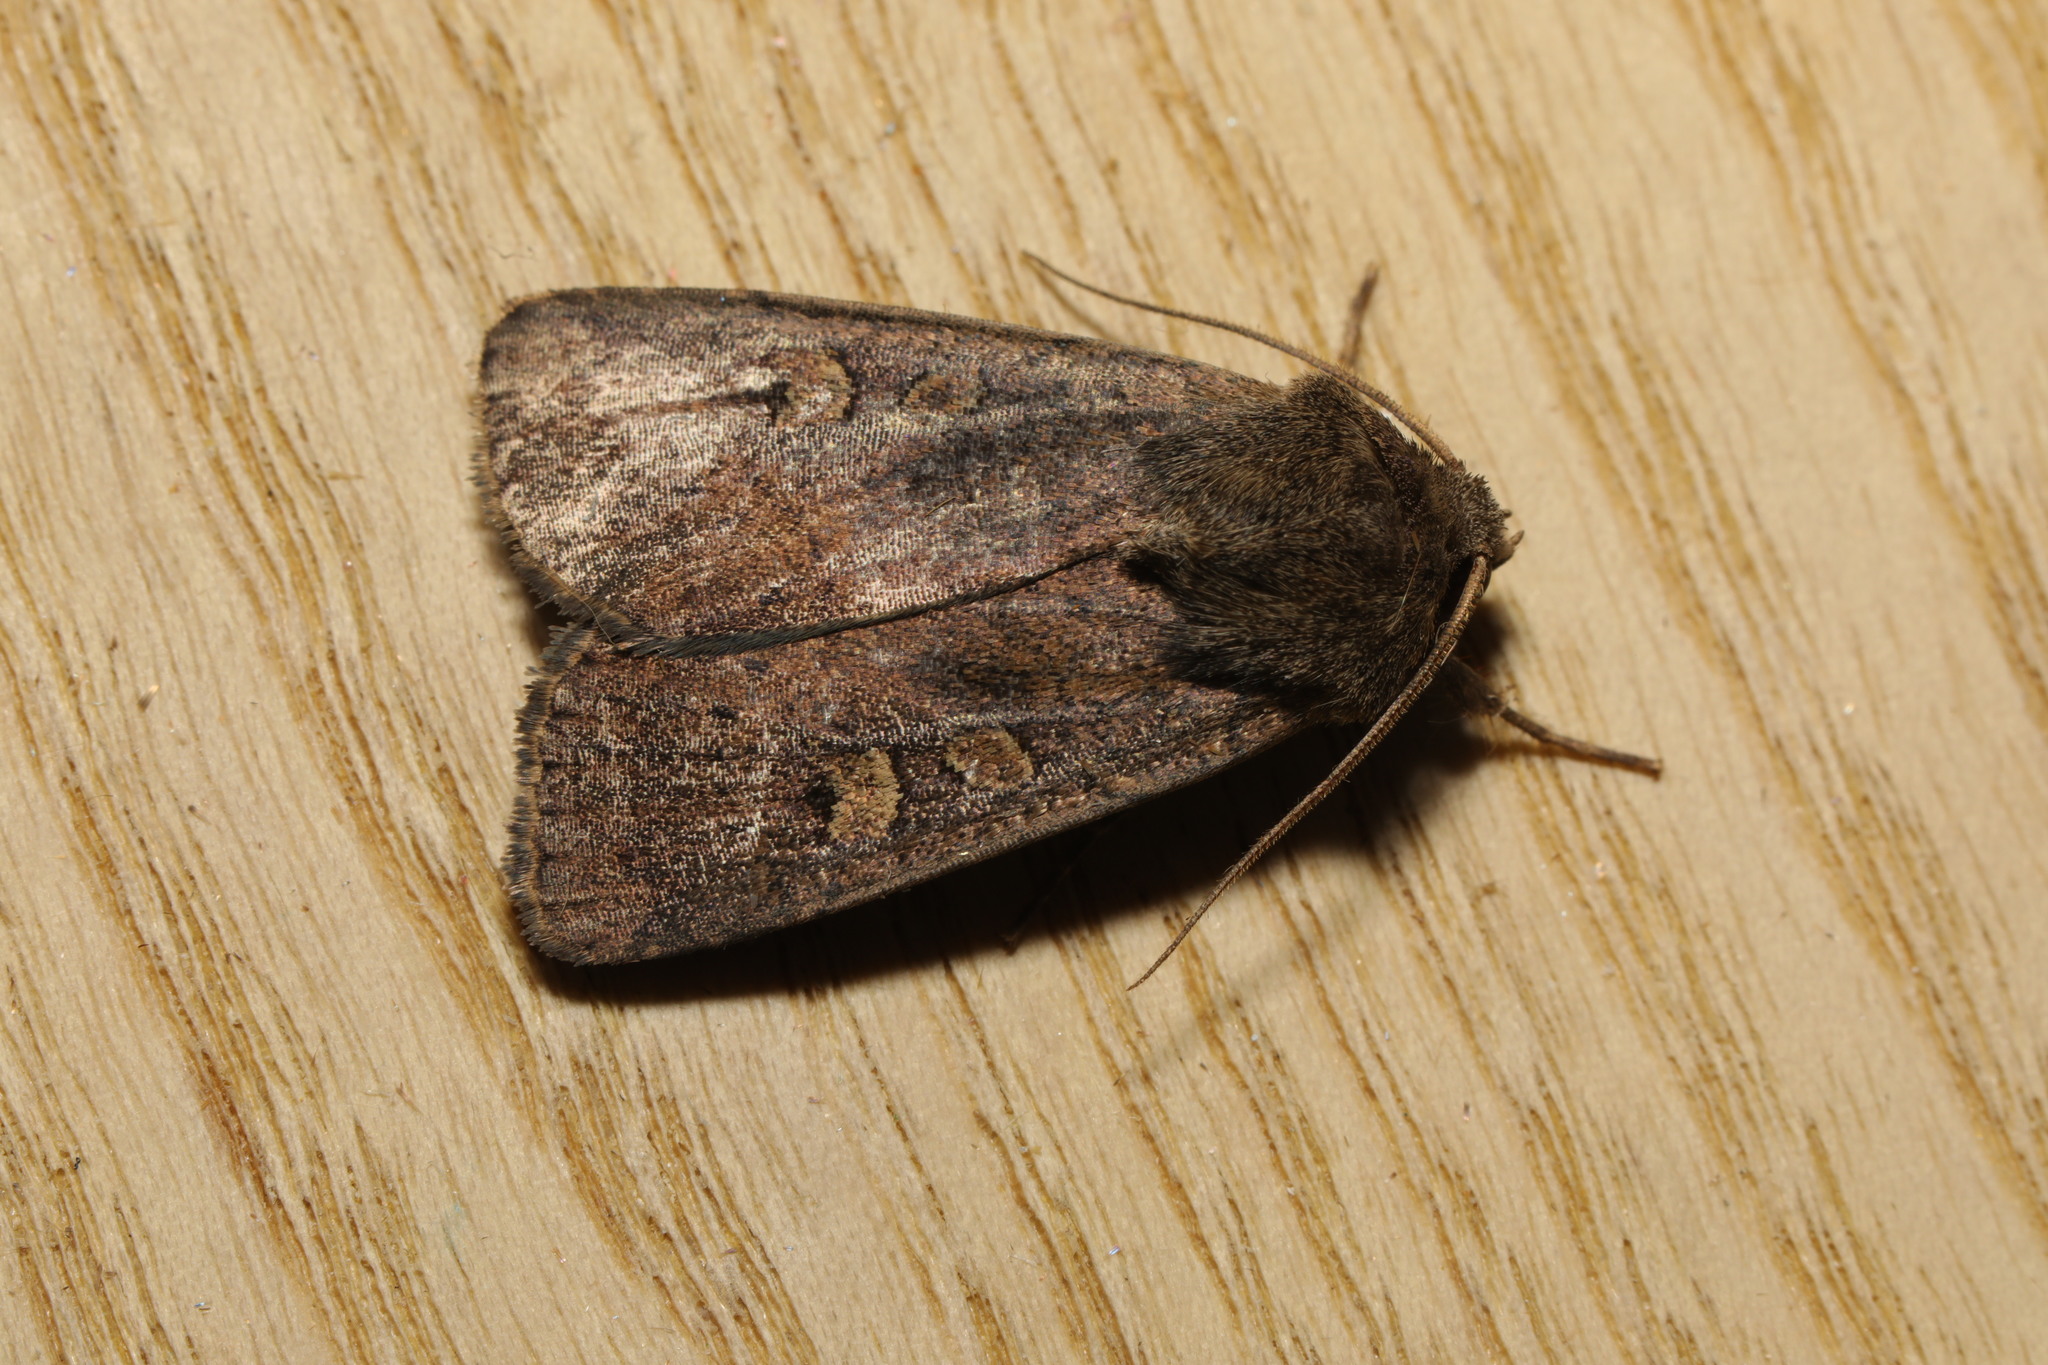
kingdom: Animalia
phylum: Arthropoda
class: Insecta
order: Lepidoptera
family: Noctuidae
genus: Xestia
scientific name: Xestia xanthographa
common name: Square-spot rustic
